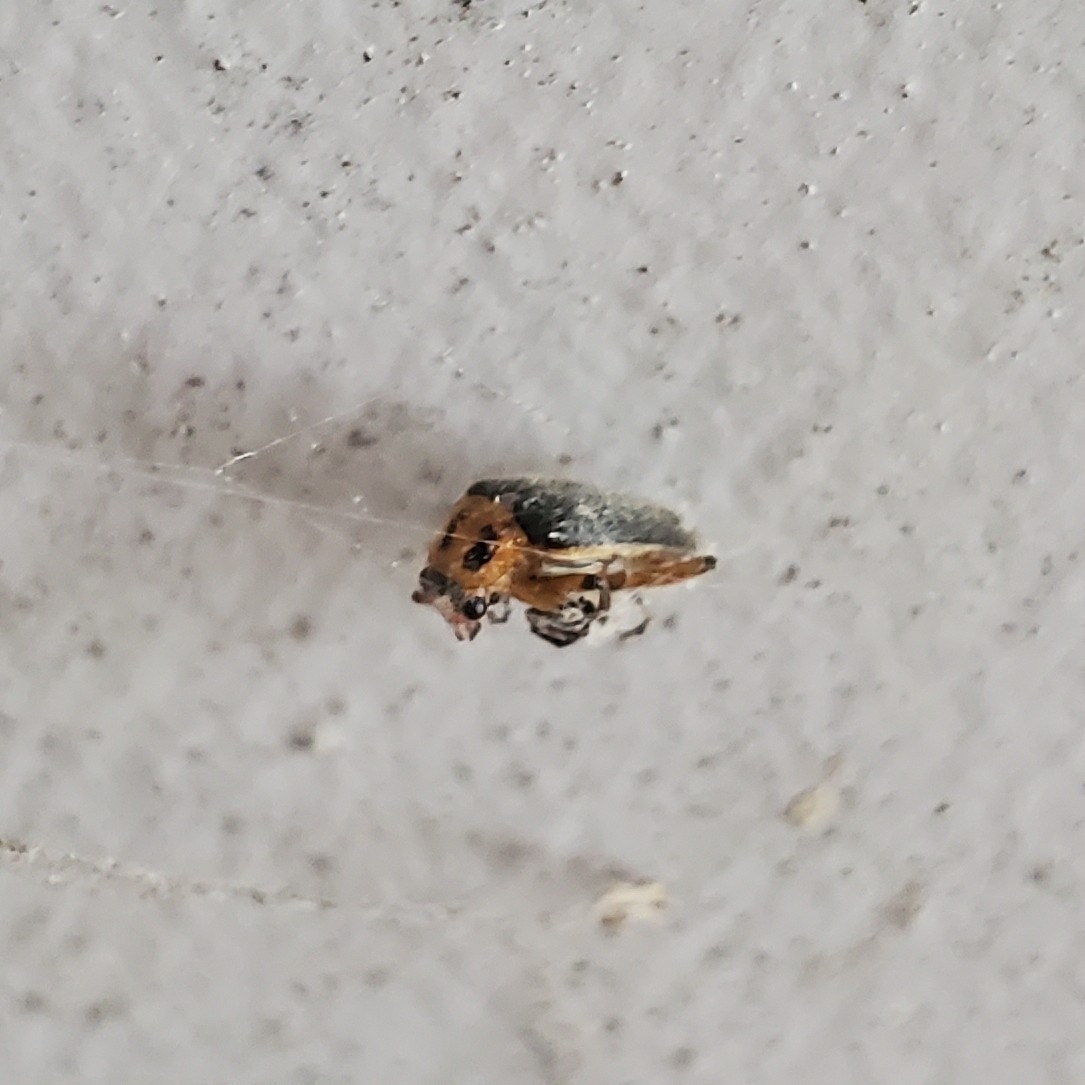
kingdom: Animalia
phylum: Arthropoda
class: Insecta
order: Coleoptera
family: Cantharidae
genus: Atalantycha
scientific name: Atalantycha bilineata
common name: Two-lined leatherwing
